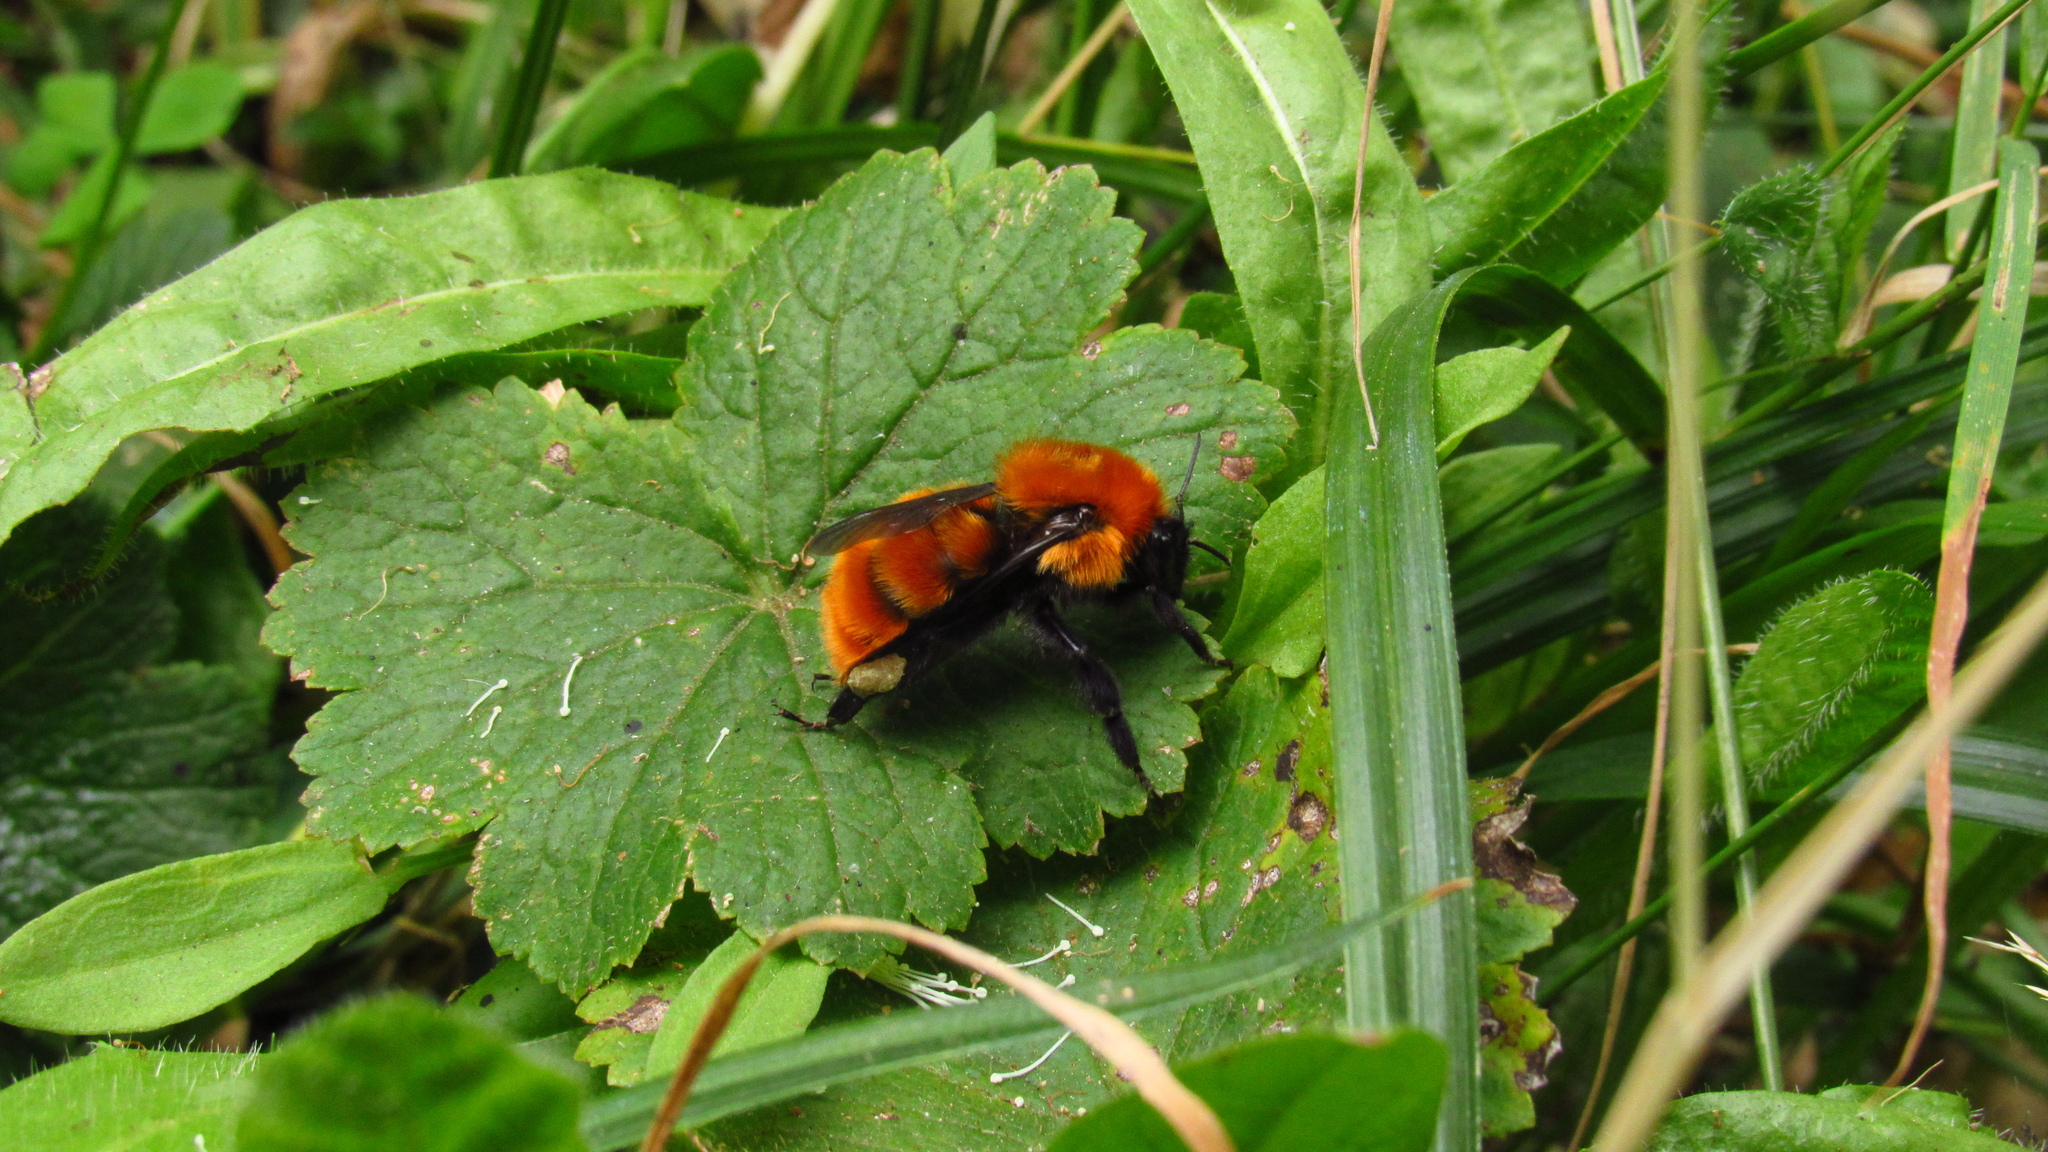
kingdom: Animalia
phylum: Arthropoda
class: Insecta
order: Hymenoptera
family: Apidae
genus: Bombus
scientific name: Bombus dahlbomii
